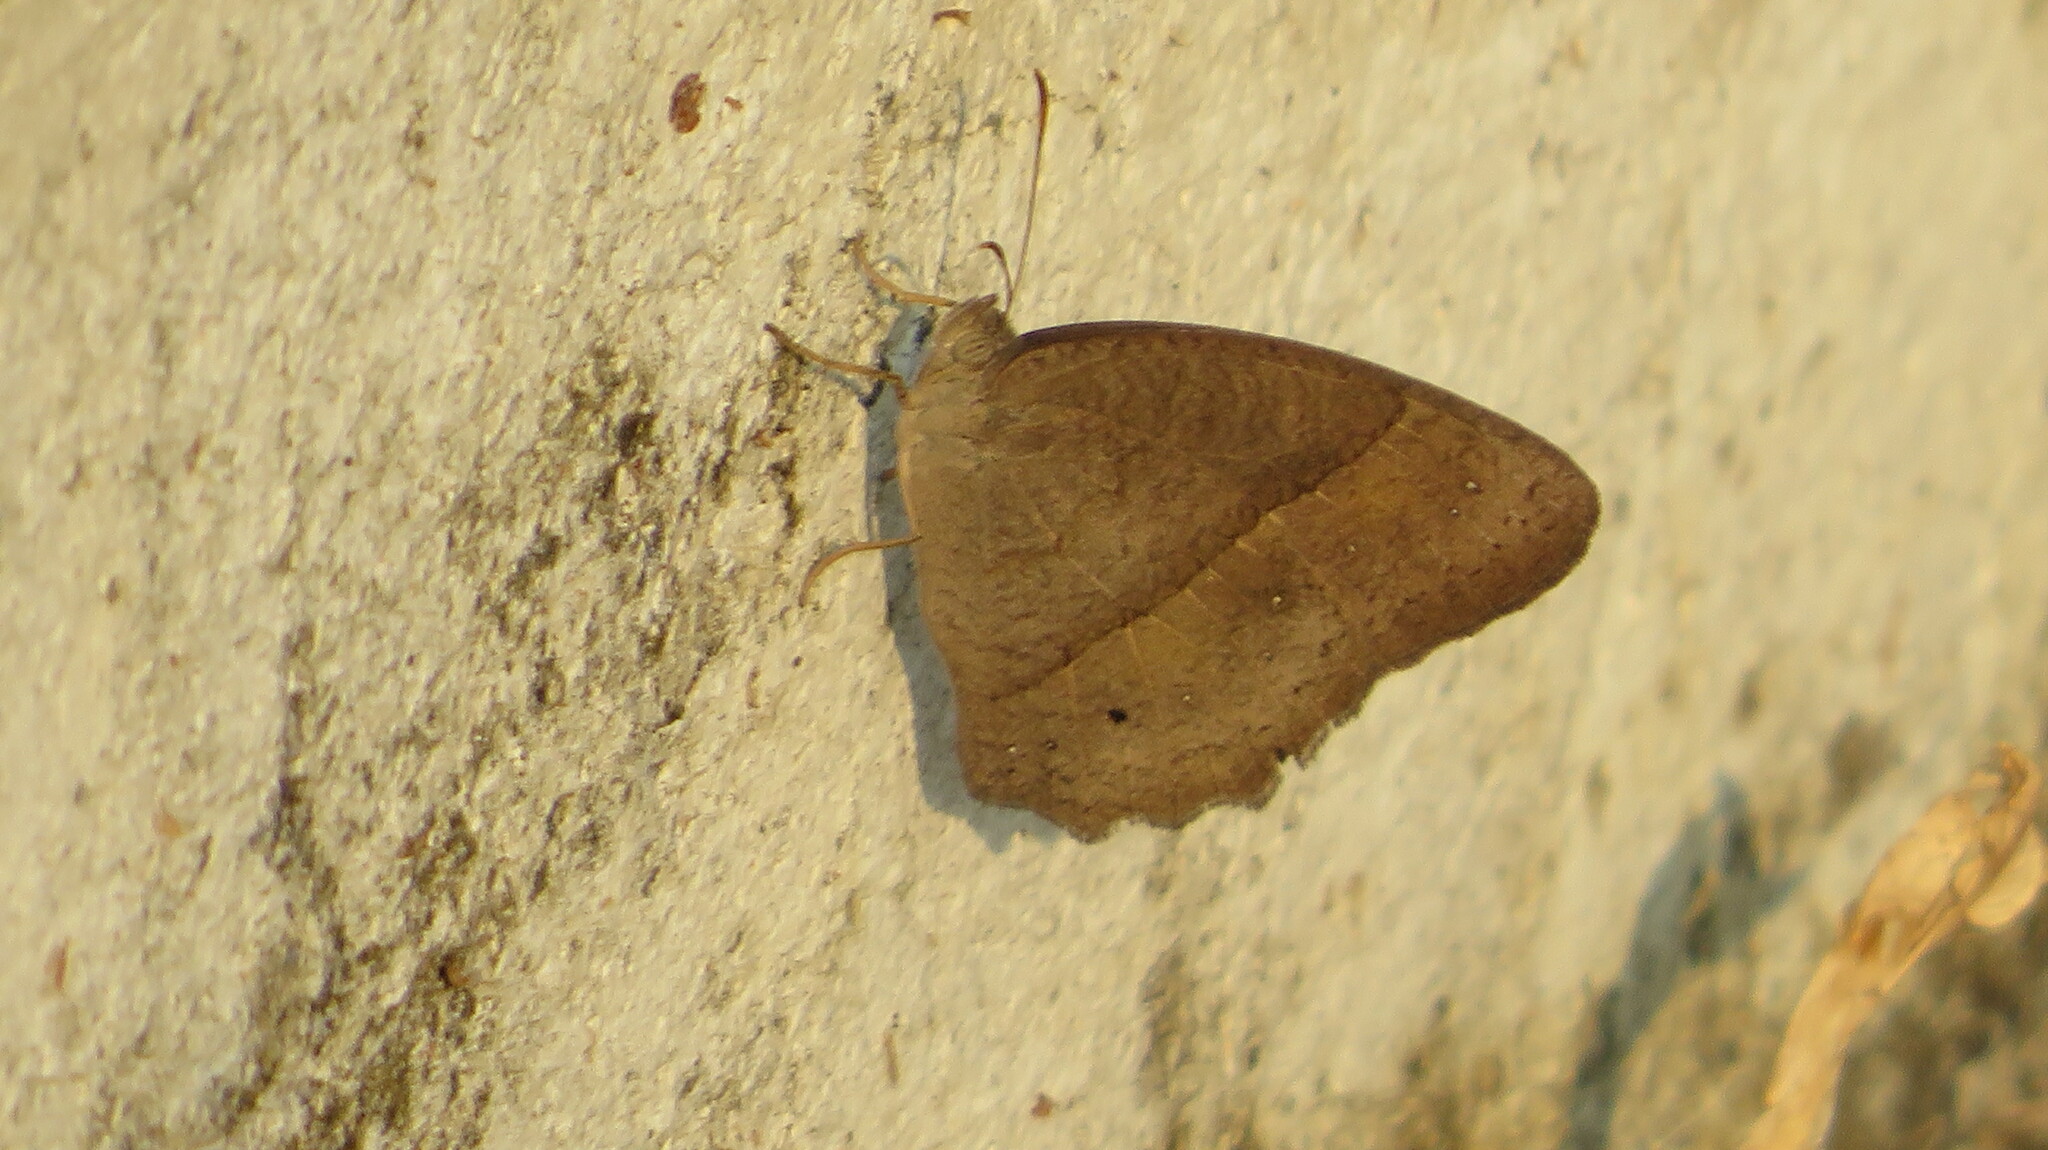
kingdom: Animalia
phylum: Arthropoda
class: Insecta
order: Lepidoptera
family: Nymphalidae
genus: Mycalesis
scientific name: Mycalesis perseus
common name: Dingy bushbrown
